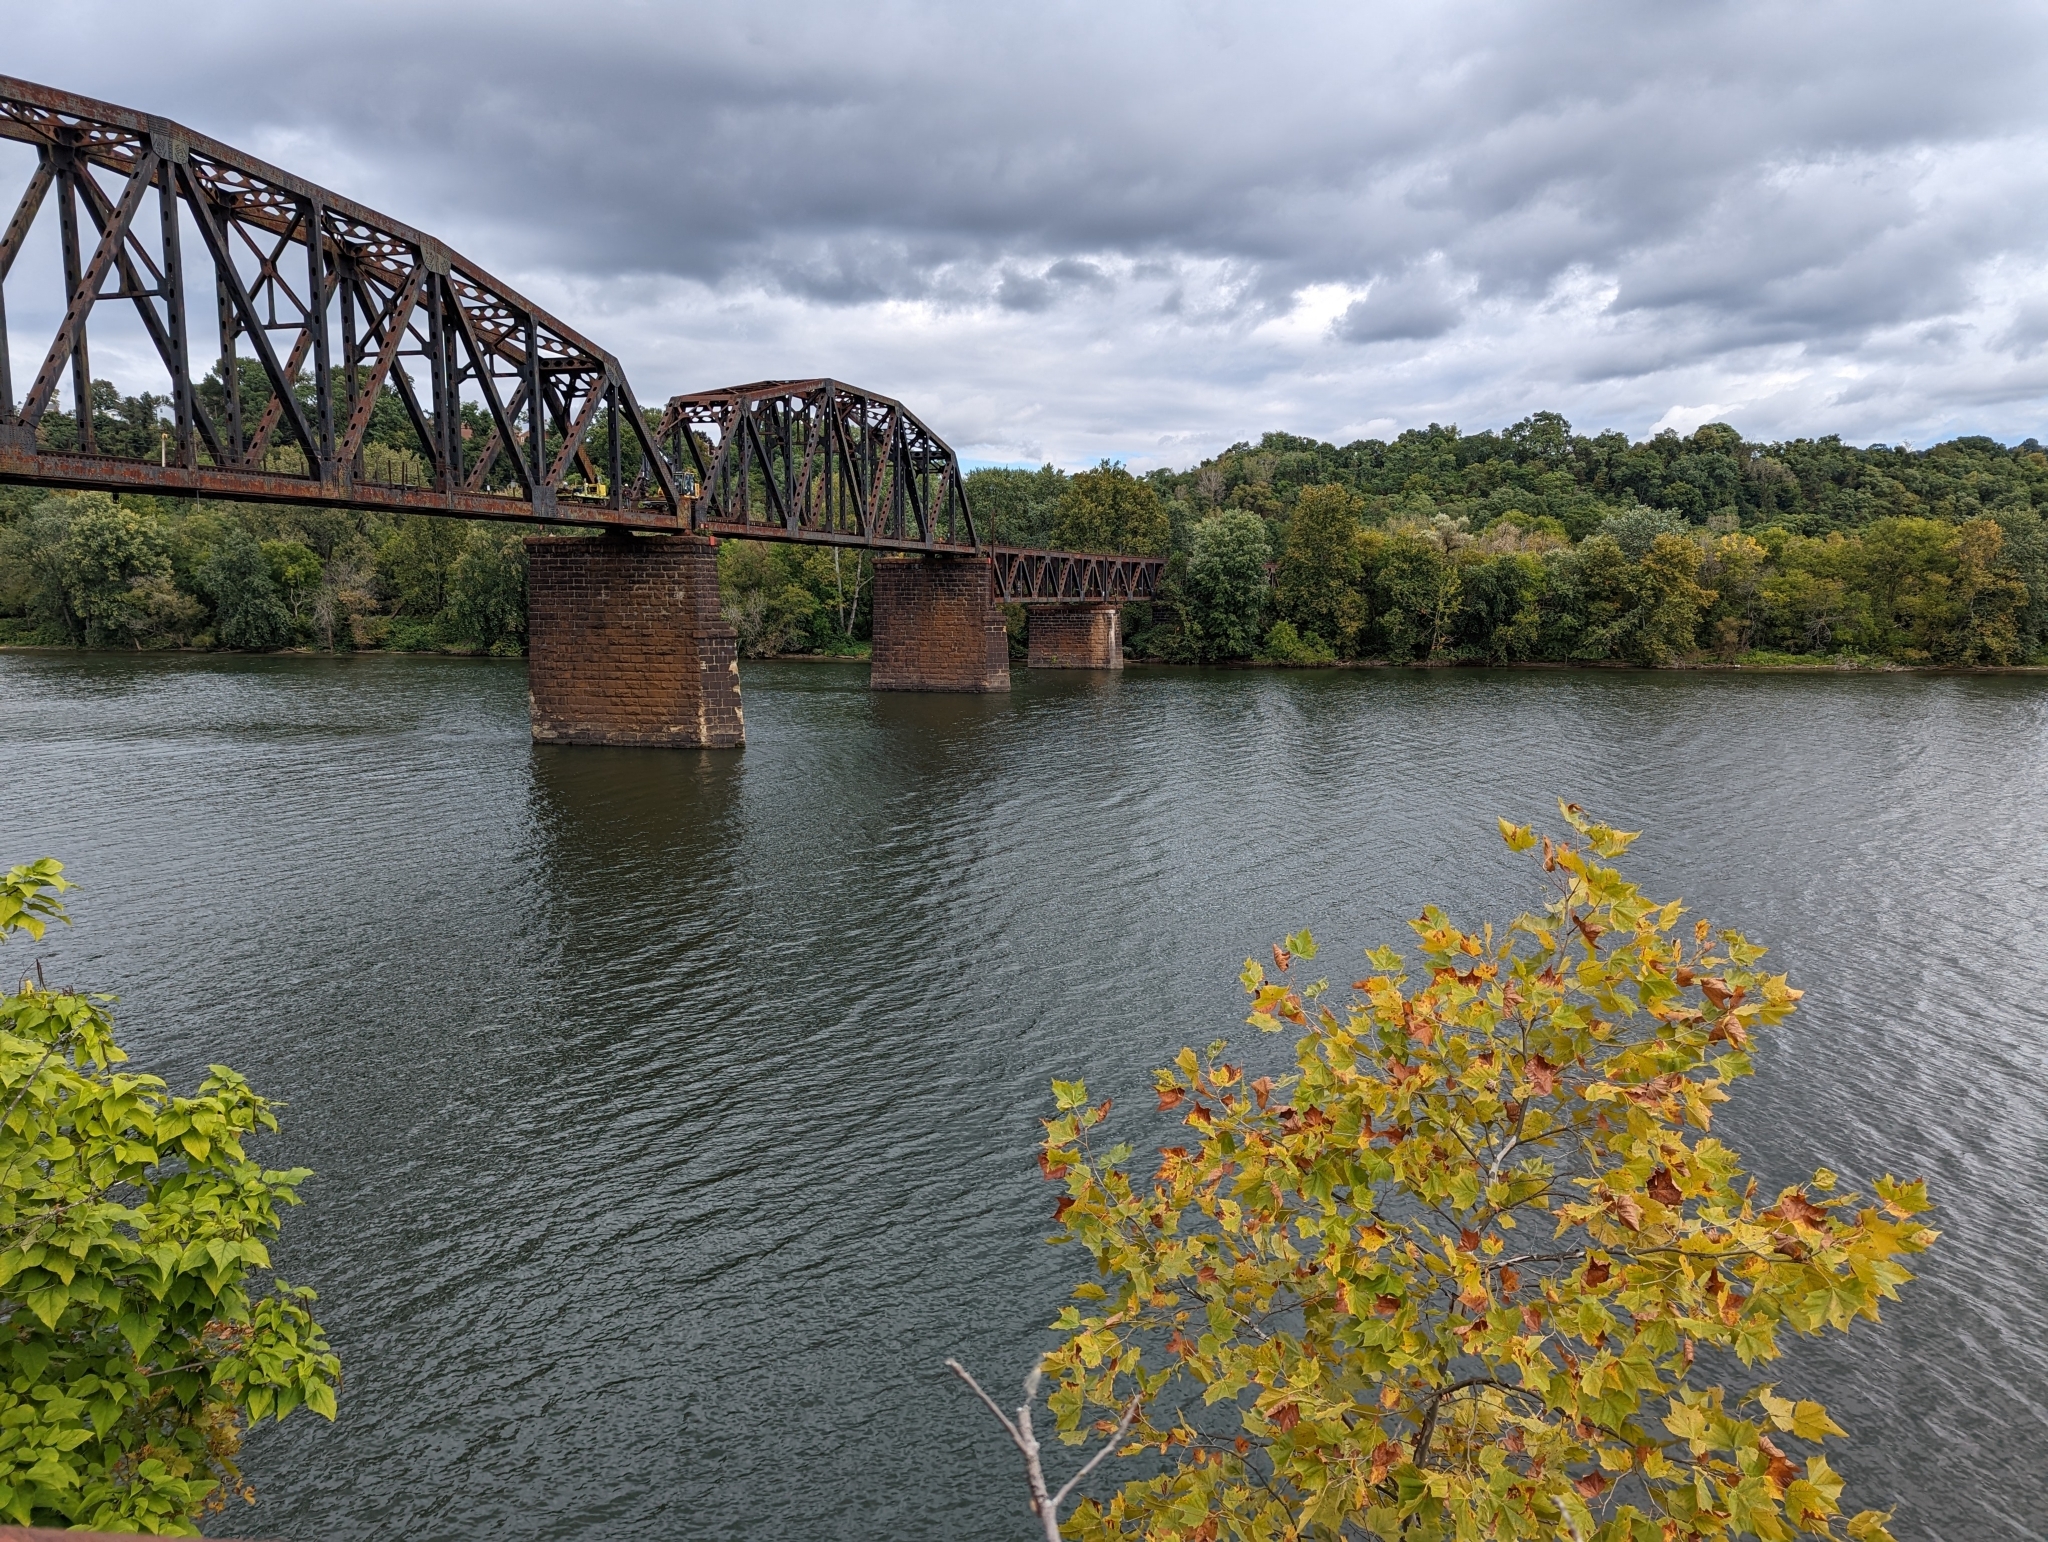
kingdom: Plantae
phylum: Tracheophyta
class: Magnoliopsida
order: Proteales
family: Platanaceae
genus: Platanus
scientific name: Platanus occidentalis
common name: American sycamore
